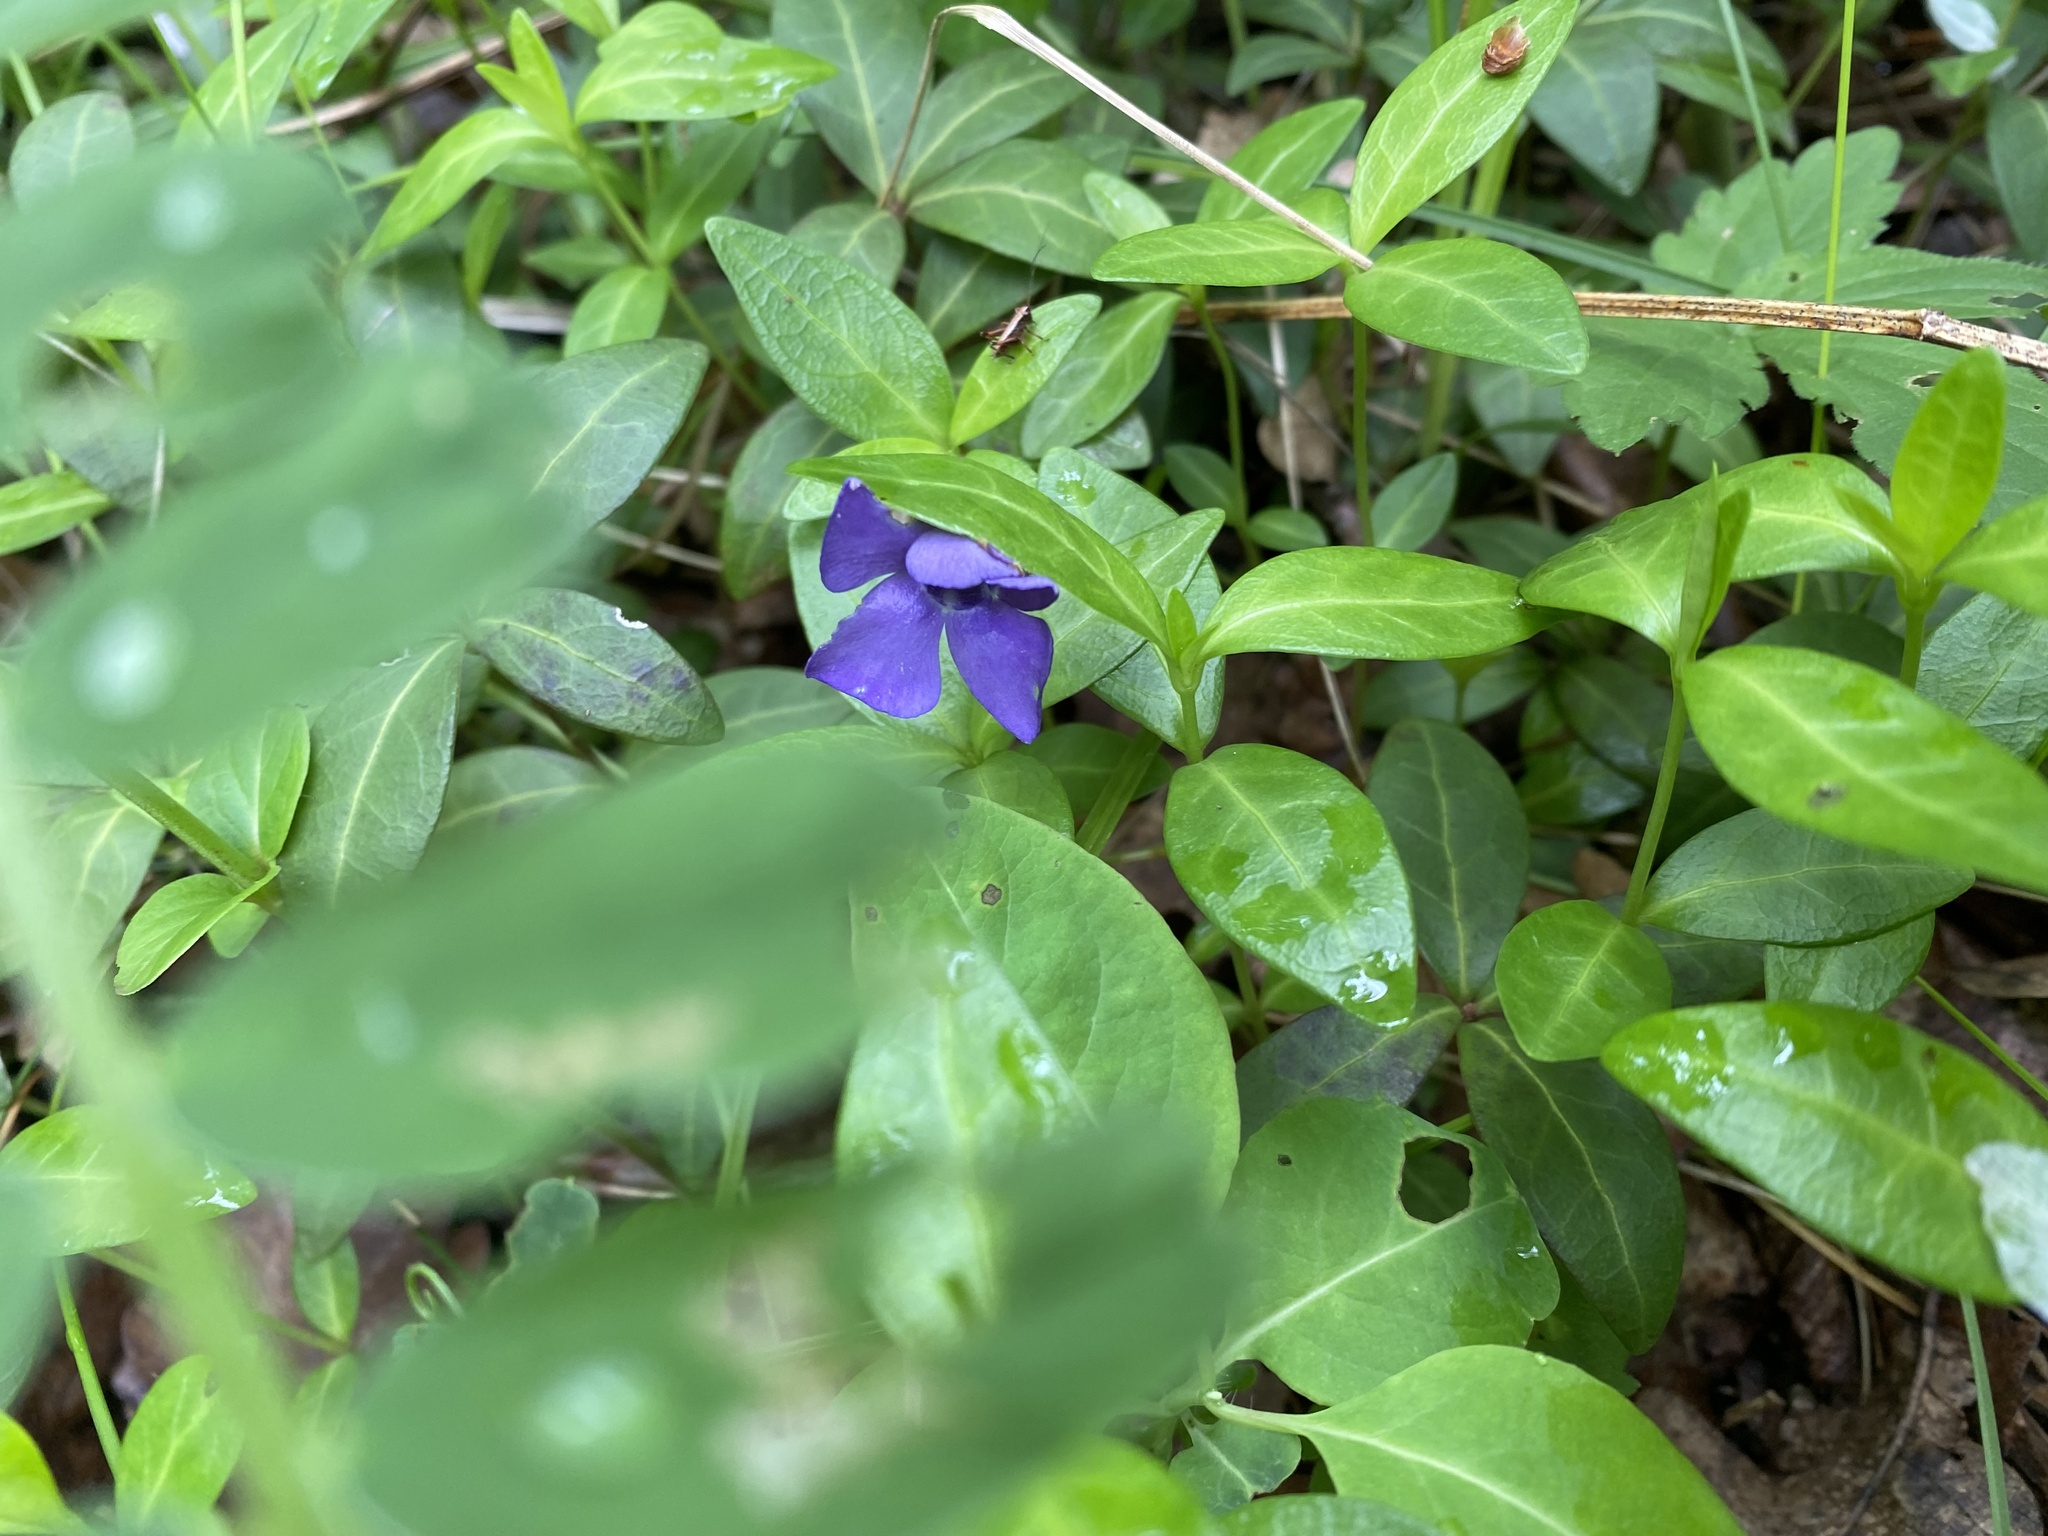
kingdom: Plantae
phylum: Tracheophyta
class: Magnoliopsida
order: Gentianales
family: Apocynaceae
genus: Vinca
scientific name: Vinca minor
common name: Lesser periwinkle
